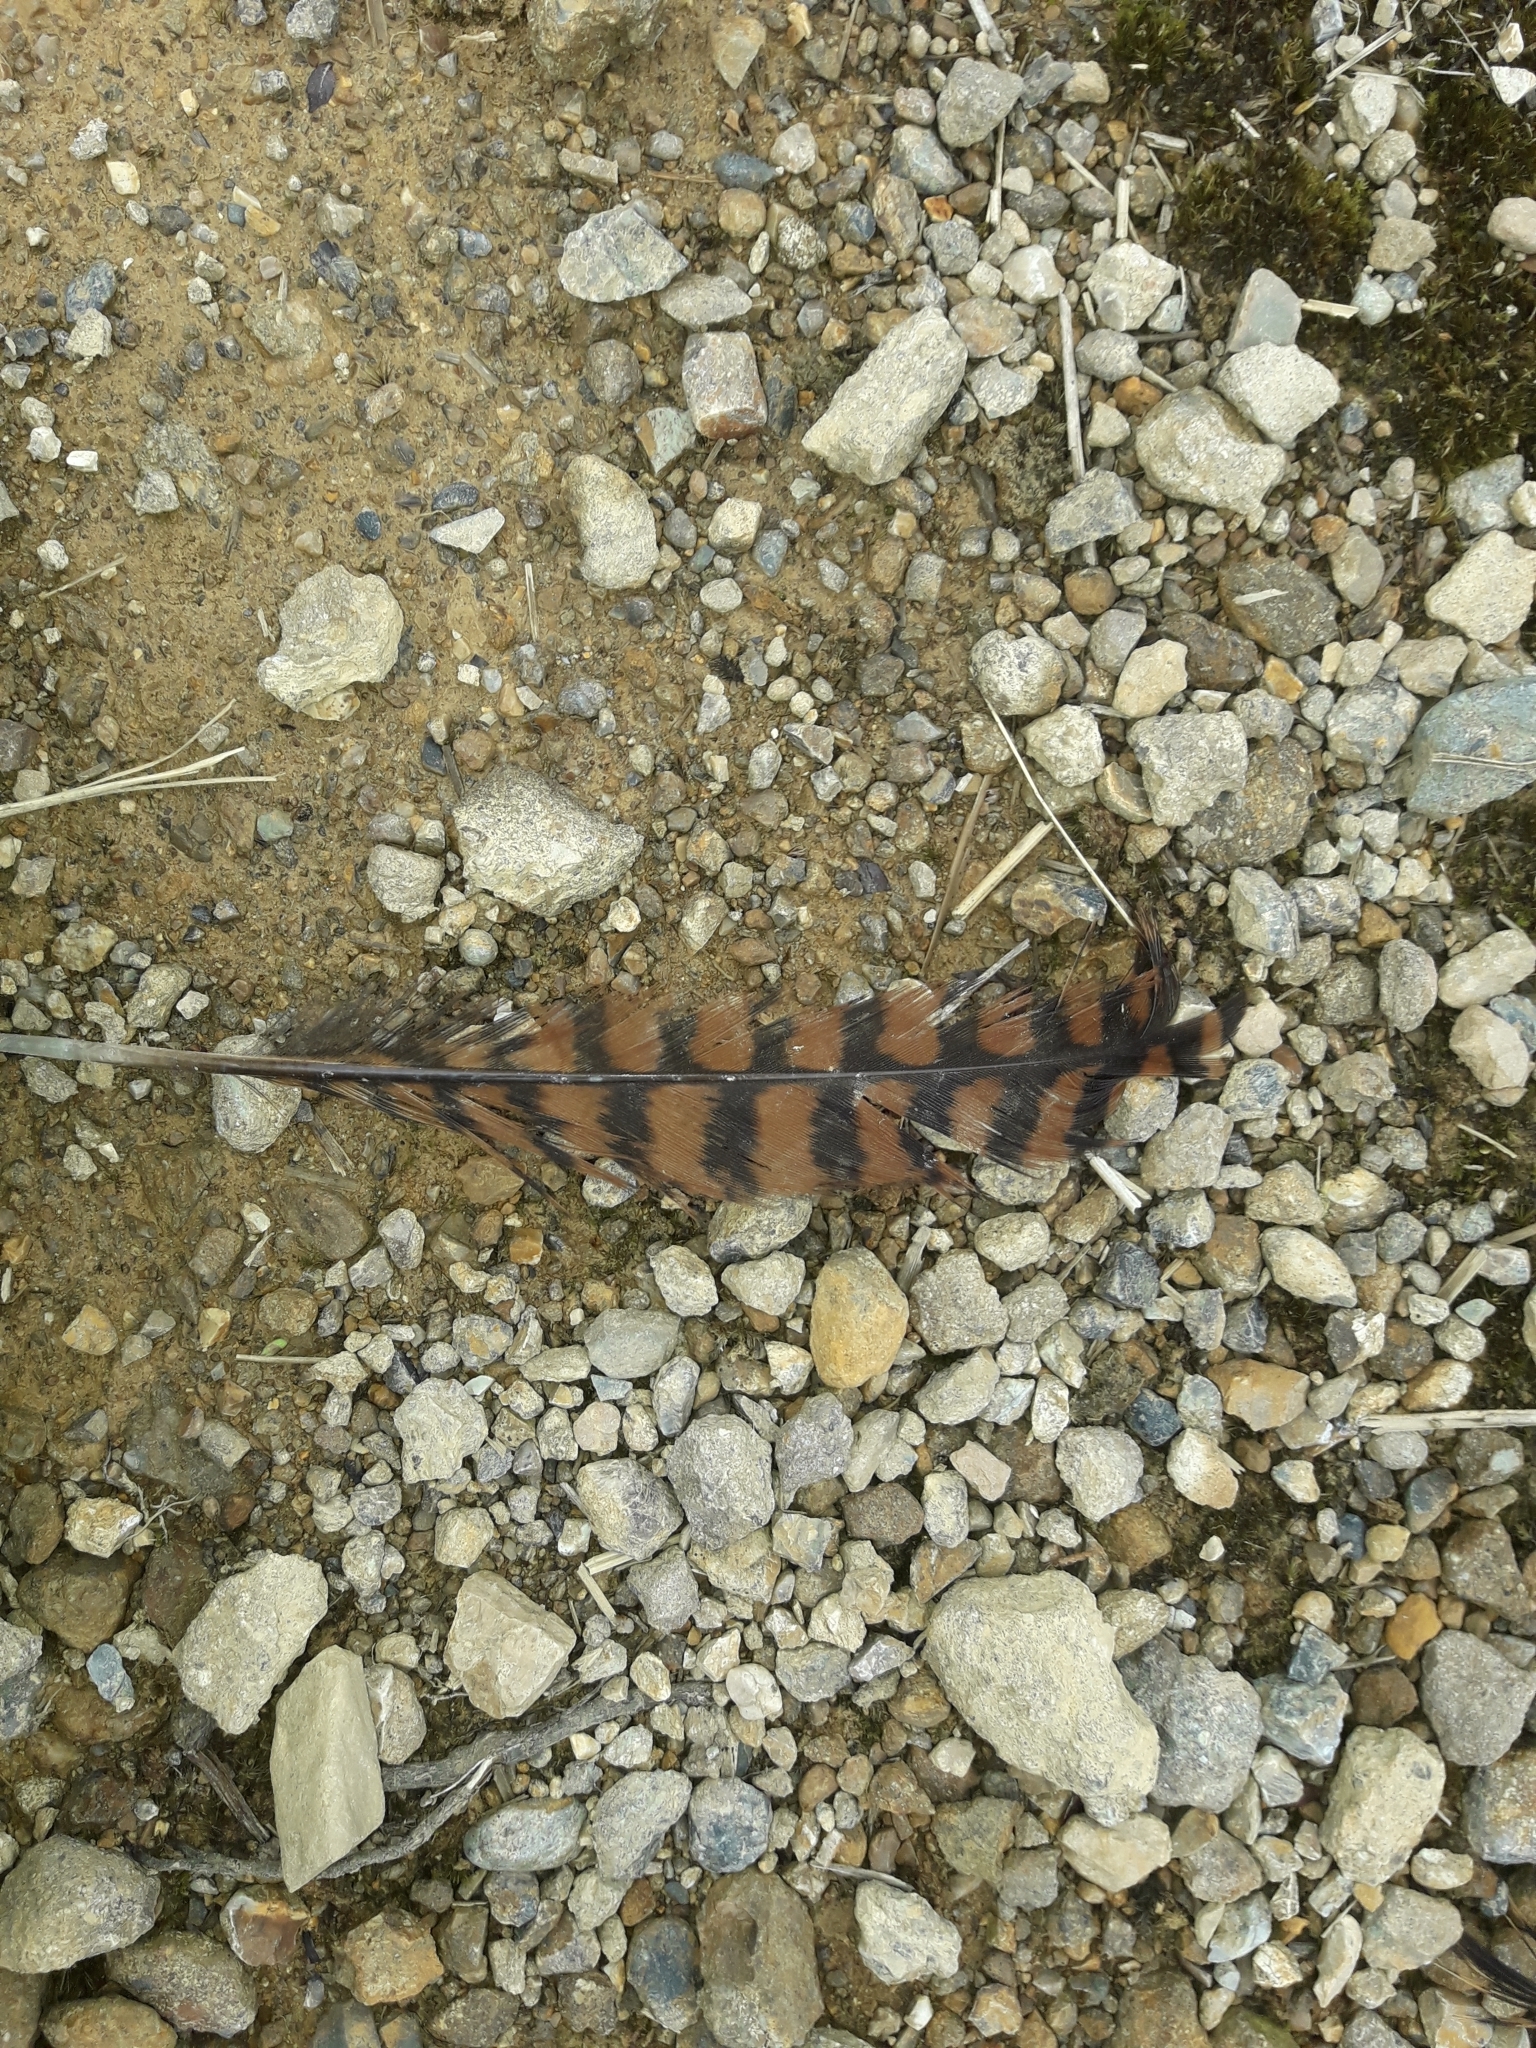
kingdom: Animalia
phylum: Chordata
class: Aves
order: Gruiformes
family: Rallidae
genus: Gallirallus
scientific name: Gallirallus australis
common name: Weka
